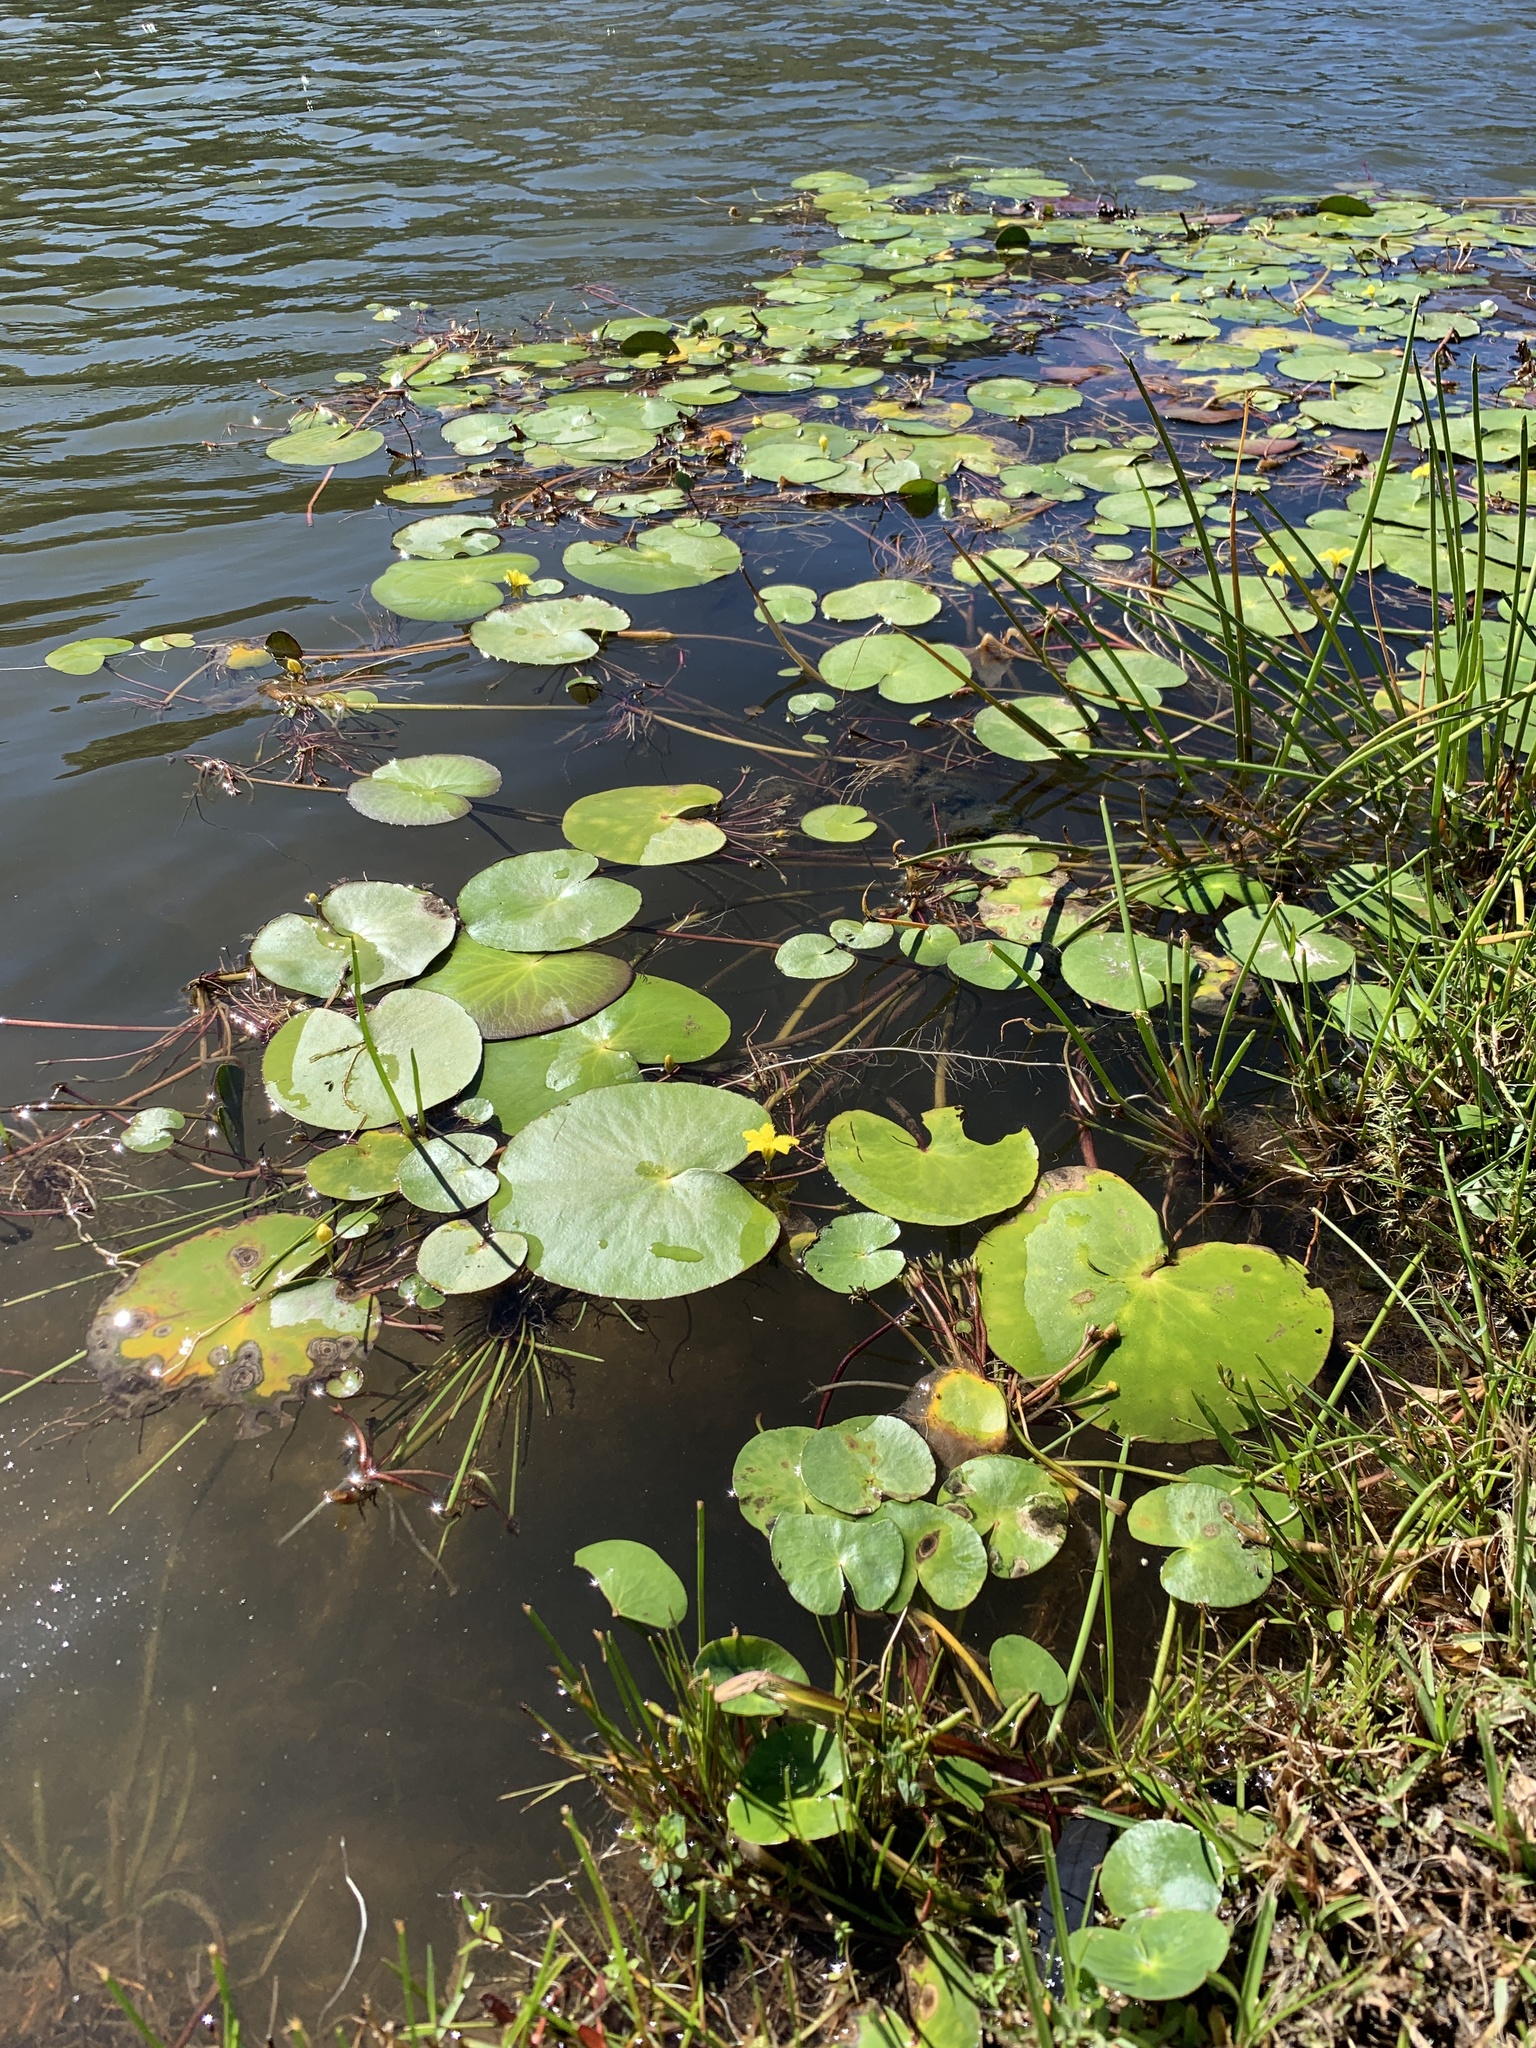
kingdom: Plantae
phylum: Tracheophyta
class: Magnoliopsida
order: Asterales
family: Menyanthaceae
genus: Nymphoides
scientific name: Nymphoides thunbergiana
